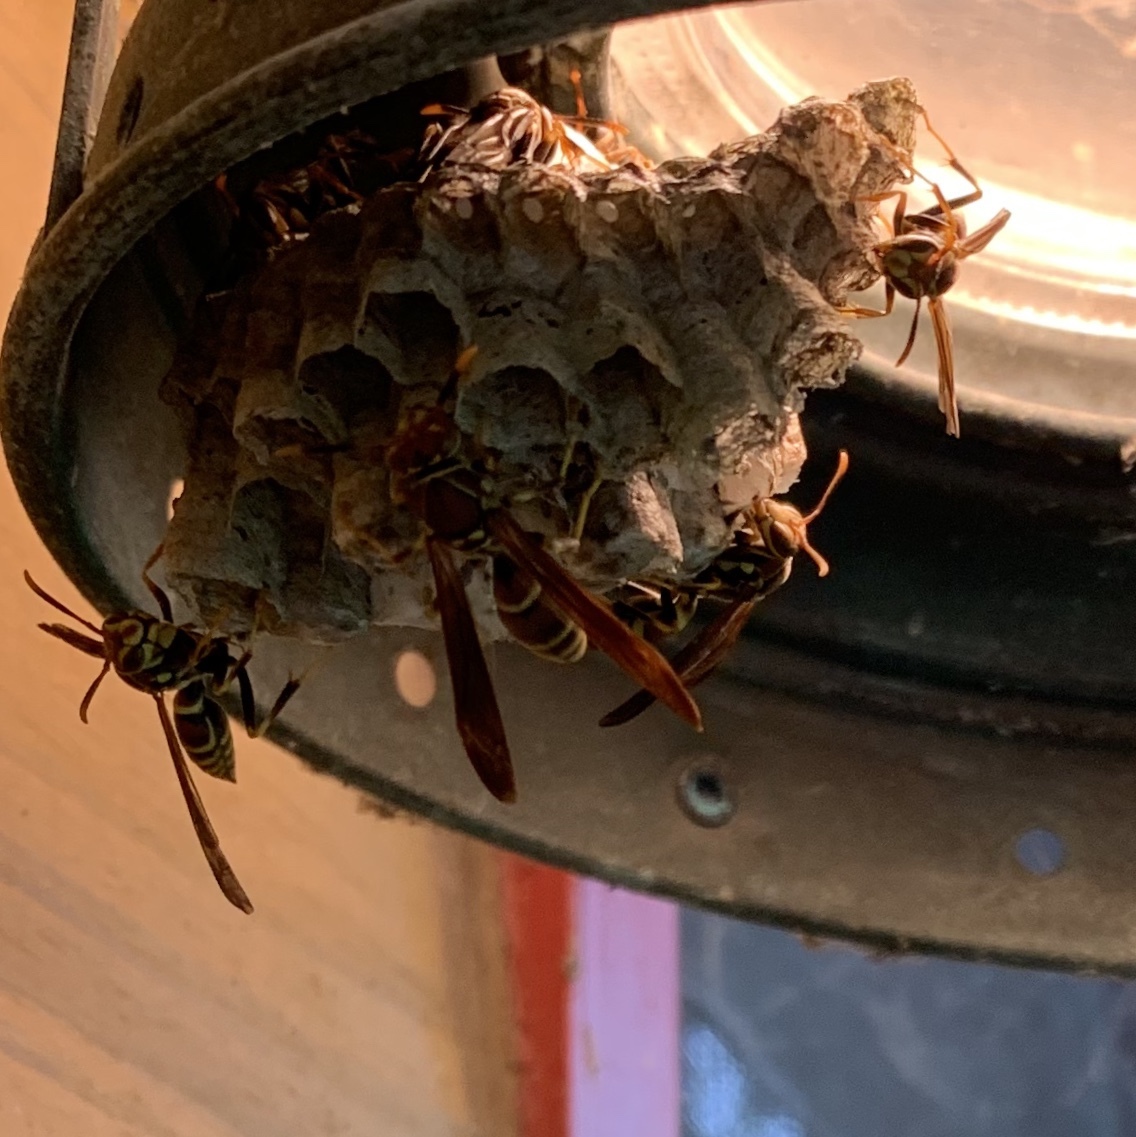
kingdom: Animalia
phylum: Arthropoda
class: Insecta
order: Hymenoptera
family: Eumenidae
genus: Polistes
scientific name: Polistes exclamans
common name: Paper wasp
